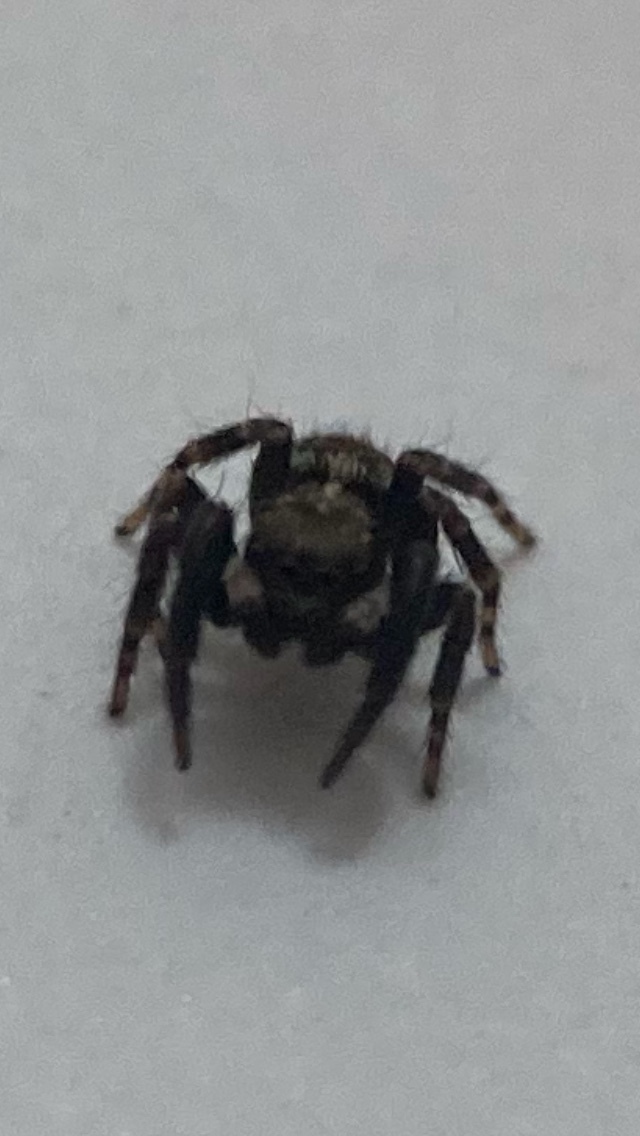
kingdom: Animalia
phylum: Arthropoda
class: Arachnida
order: Araneae
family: Salticidae
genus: Pseudeuophrys
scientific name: Pseudeuophrys erratica
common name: Jumping spider
